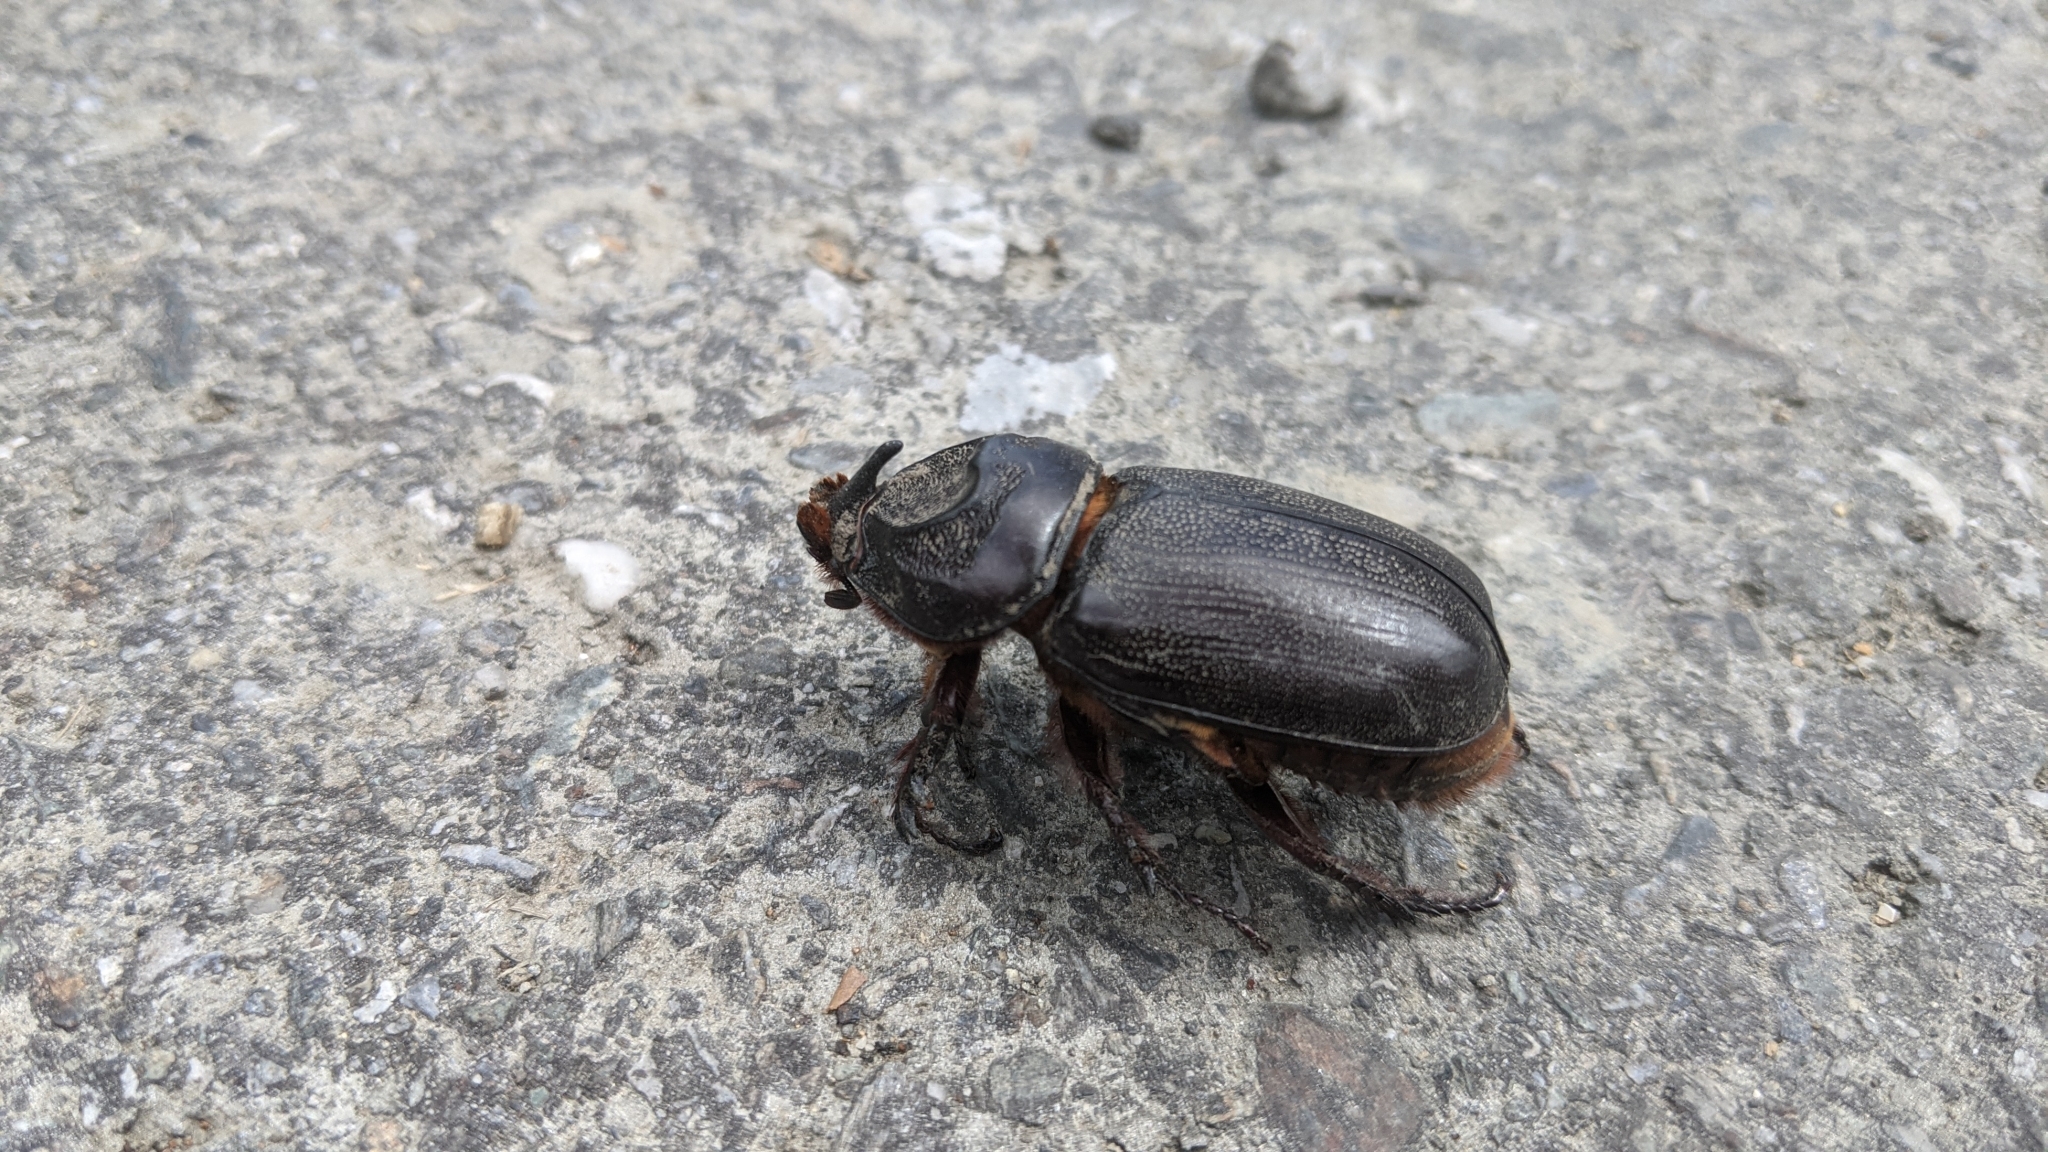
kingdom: Animalia
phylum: Arthropoda
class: Insecta
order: Coleoptera
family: Scarabaeidae
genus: Oryctes
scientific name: Oryctes rhinoceros
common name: Coconut rhinoceros beetle
